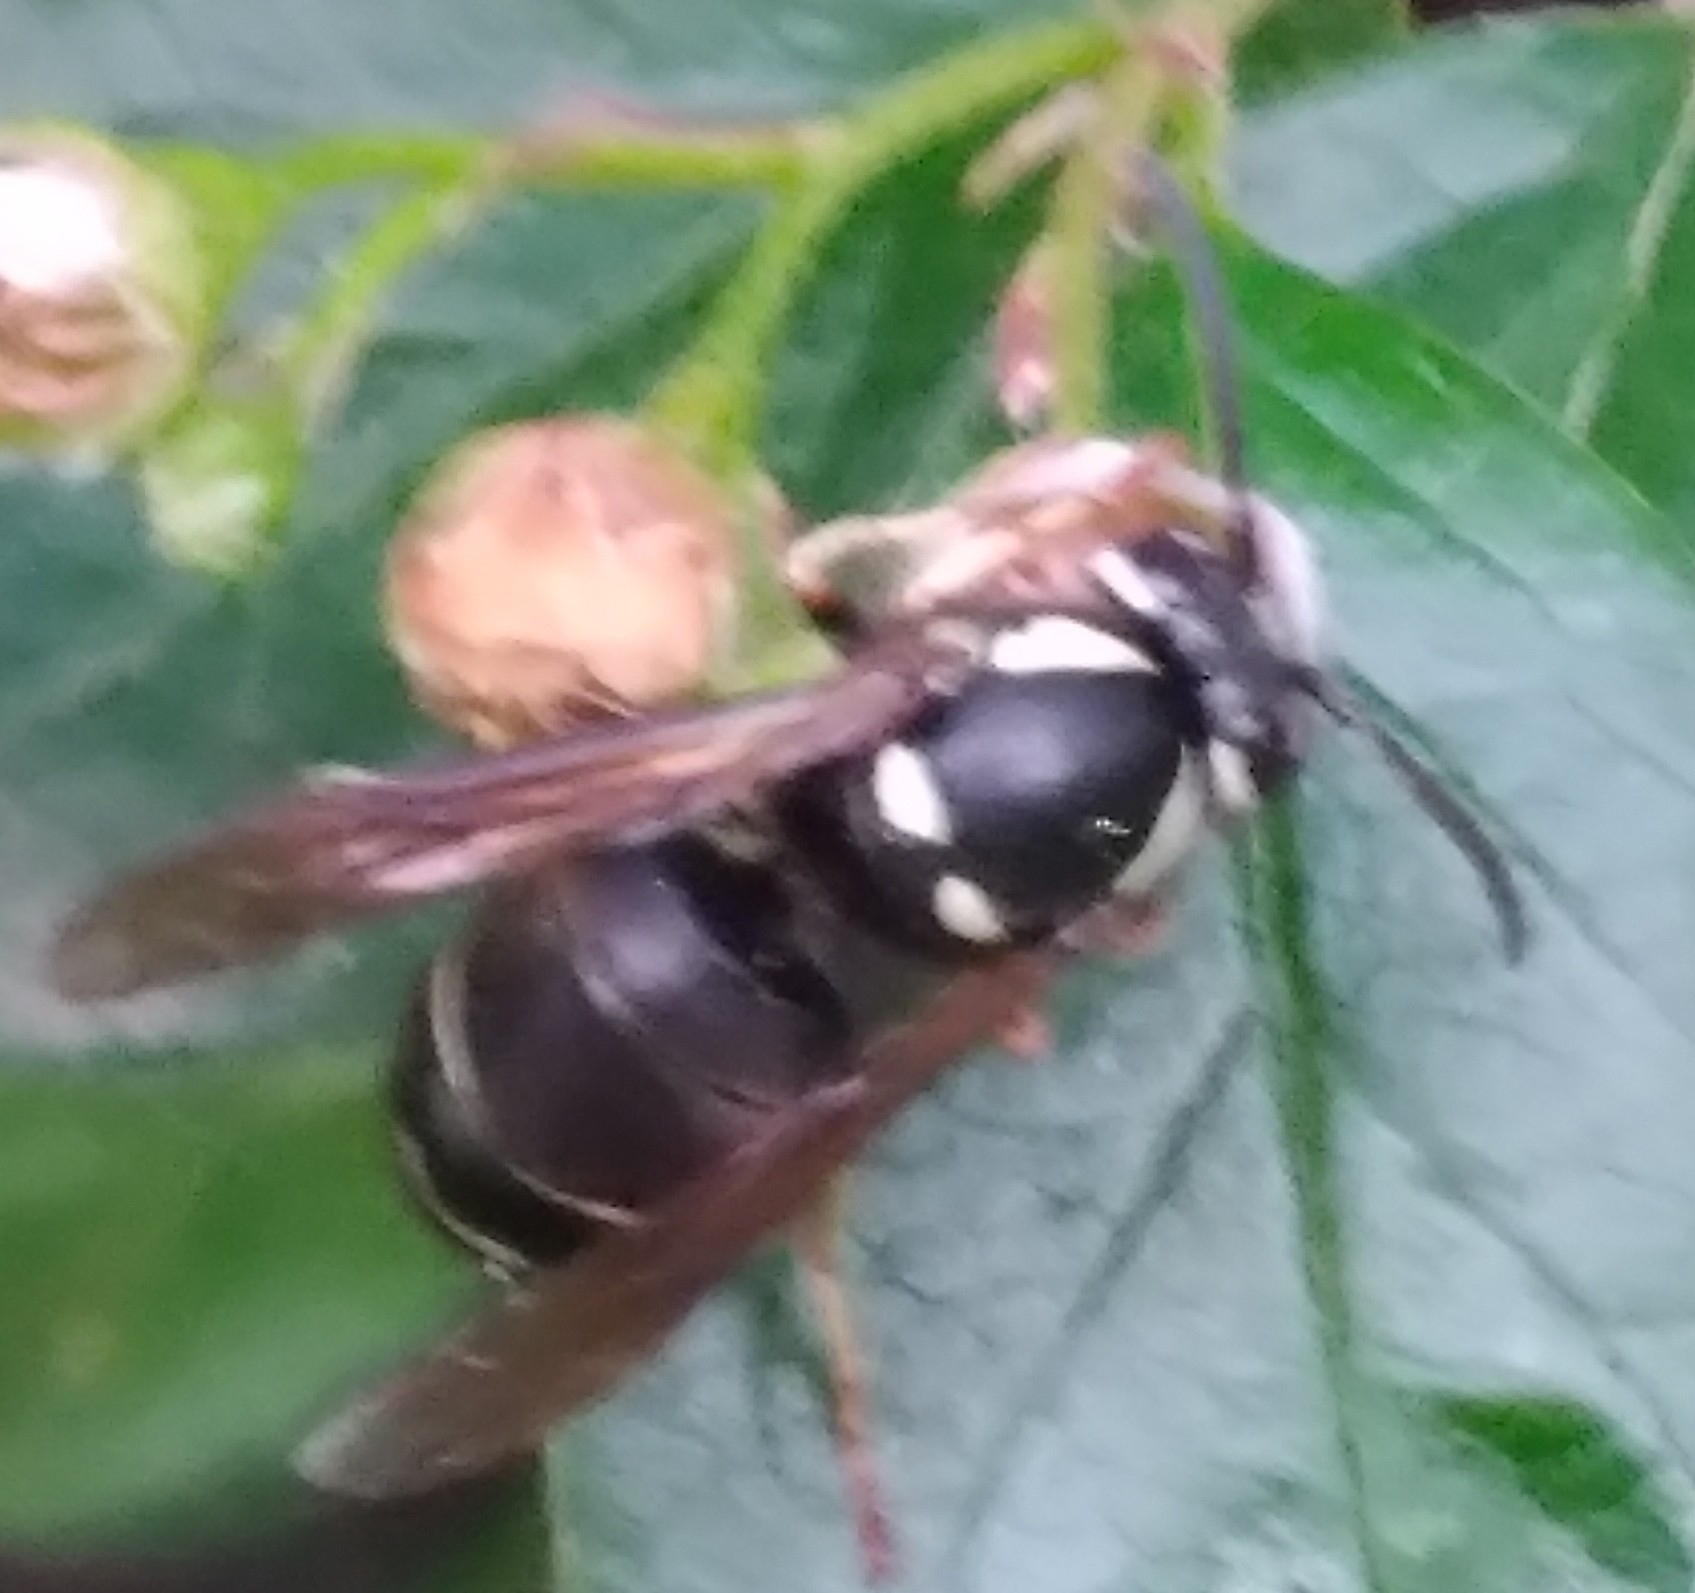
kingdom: Animalia
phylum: Arthropoda
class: Insecta
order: Hymenoptera
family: Vespidae
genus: Vespula
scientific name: Vespula consobrina
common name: Blackjacket
